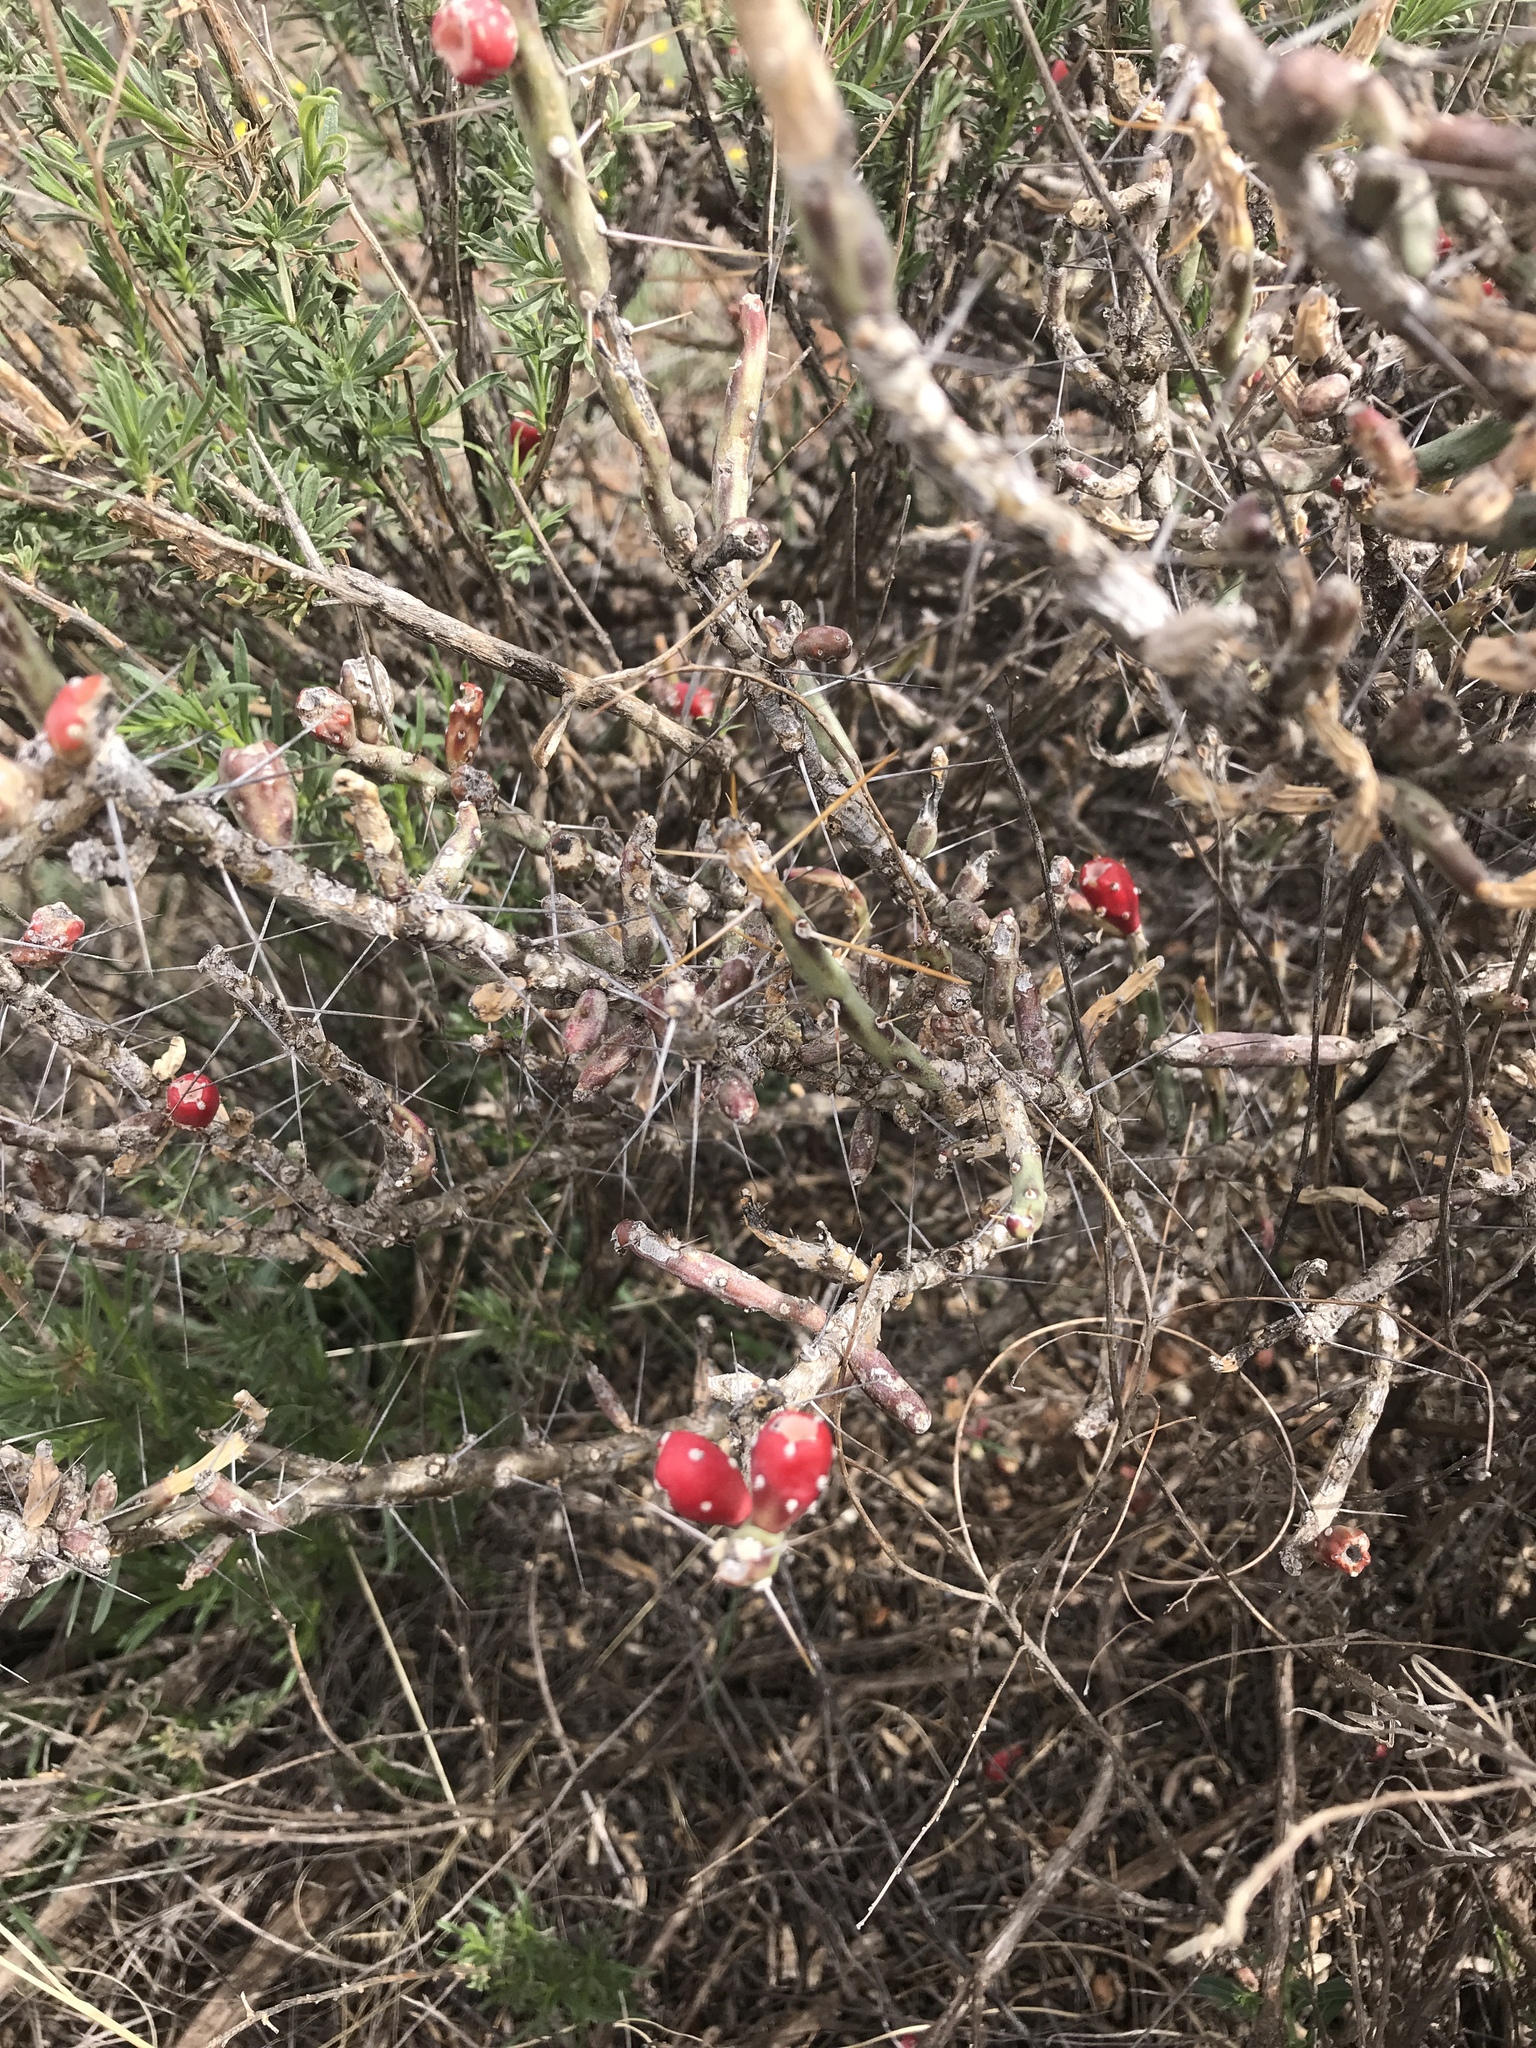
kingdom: Plantae
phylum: Tracheophyta
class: Magnoliopsida
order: Caryophyllales
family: Cactaceae
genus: Cylindropuntia
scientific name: Cylindropuntia leptocaulis
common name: Christmas cactus
